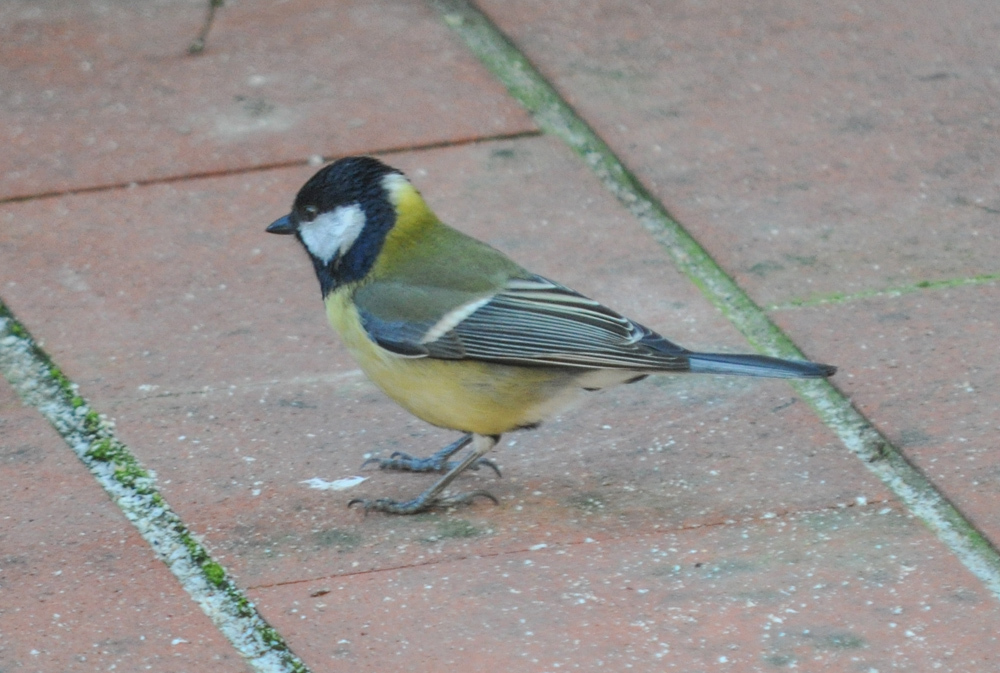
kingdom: Animalia
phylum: Chordata
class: Aves
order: Passeriformes
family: Paridae
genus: Parus
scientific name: Parus major
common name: Great tit
